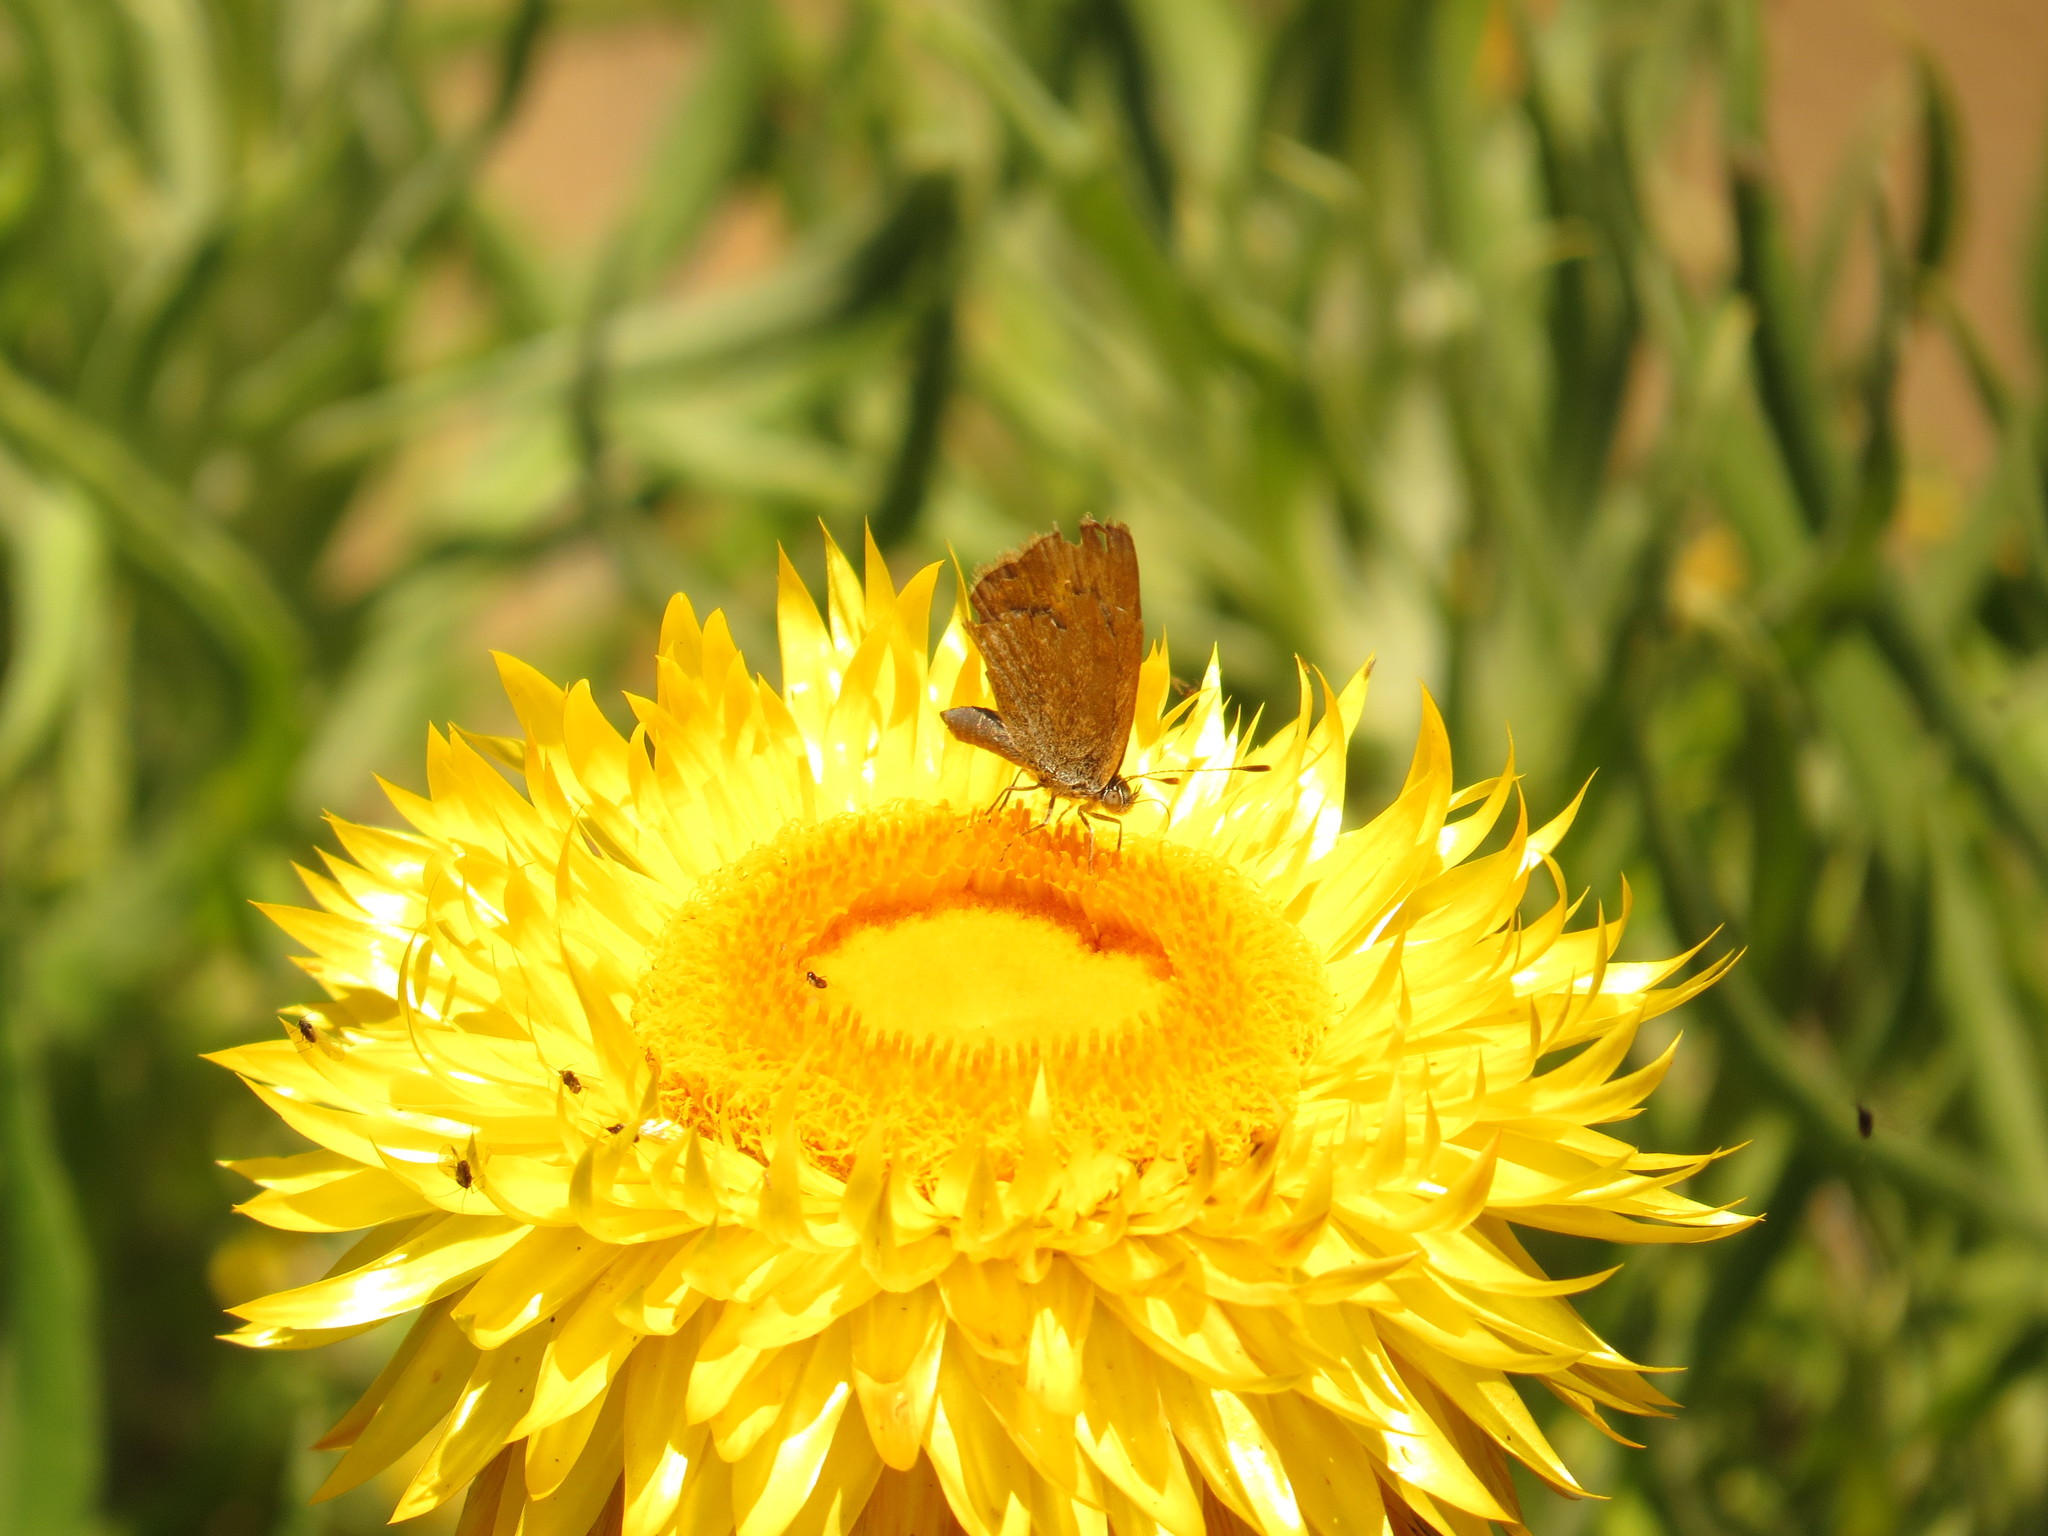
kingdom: Animalia
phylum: Arthropoda
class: Insecta
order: Lepidoptera
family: Lycaenidae
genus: Zizina
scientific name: Zizina labradus
